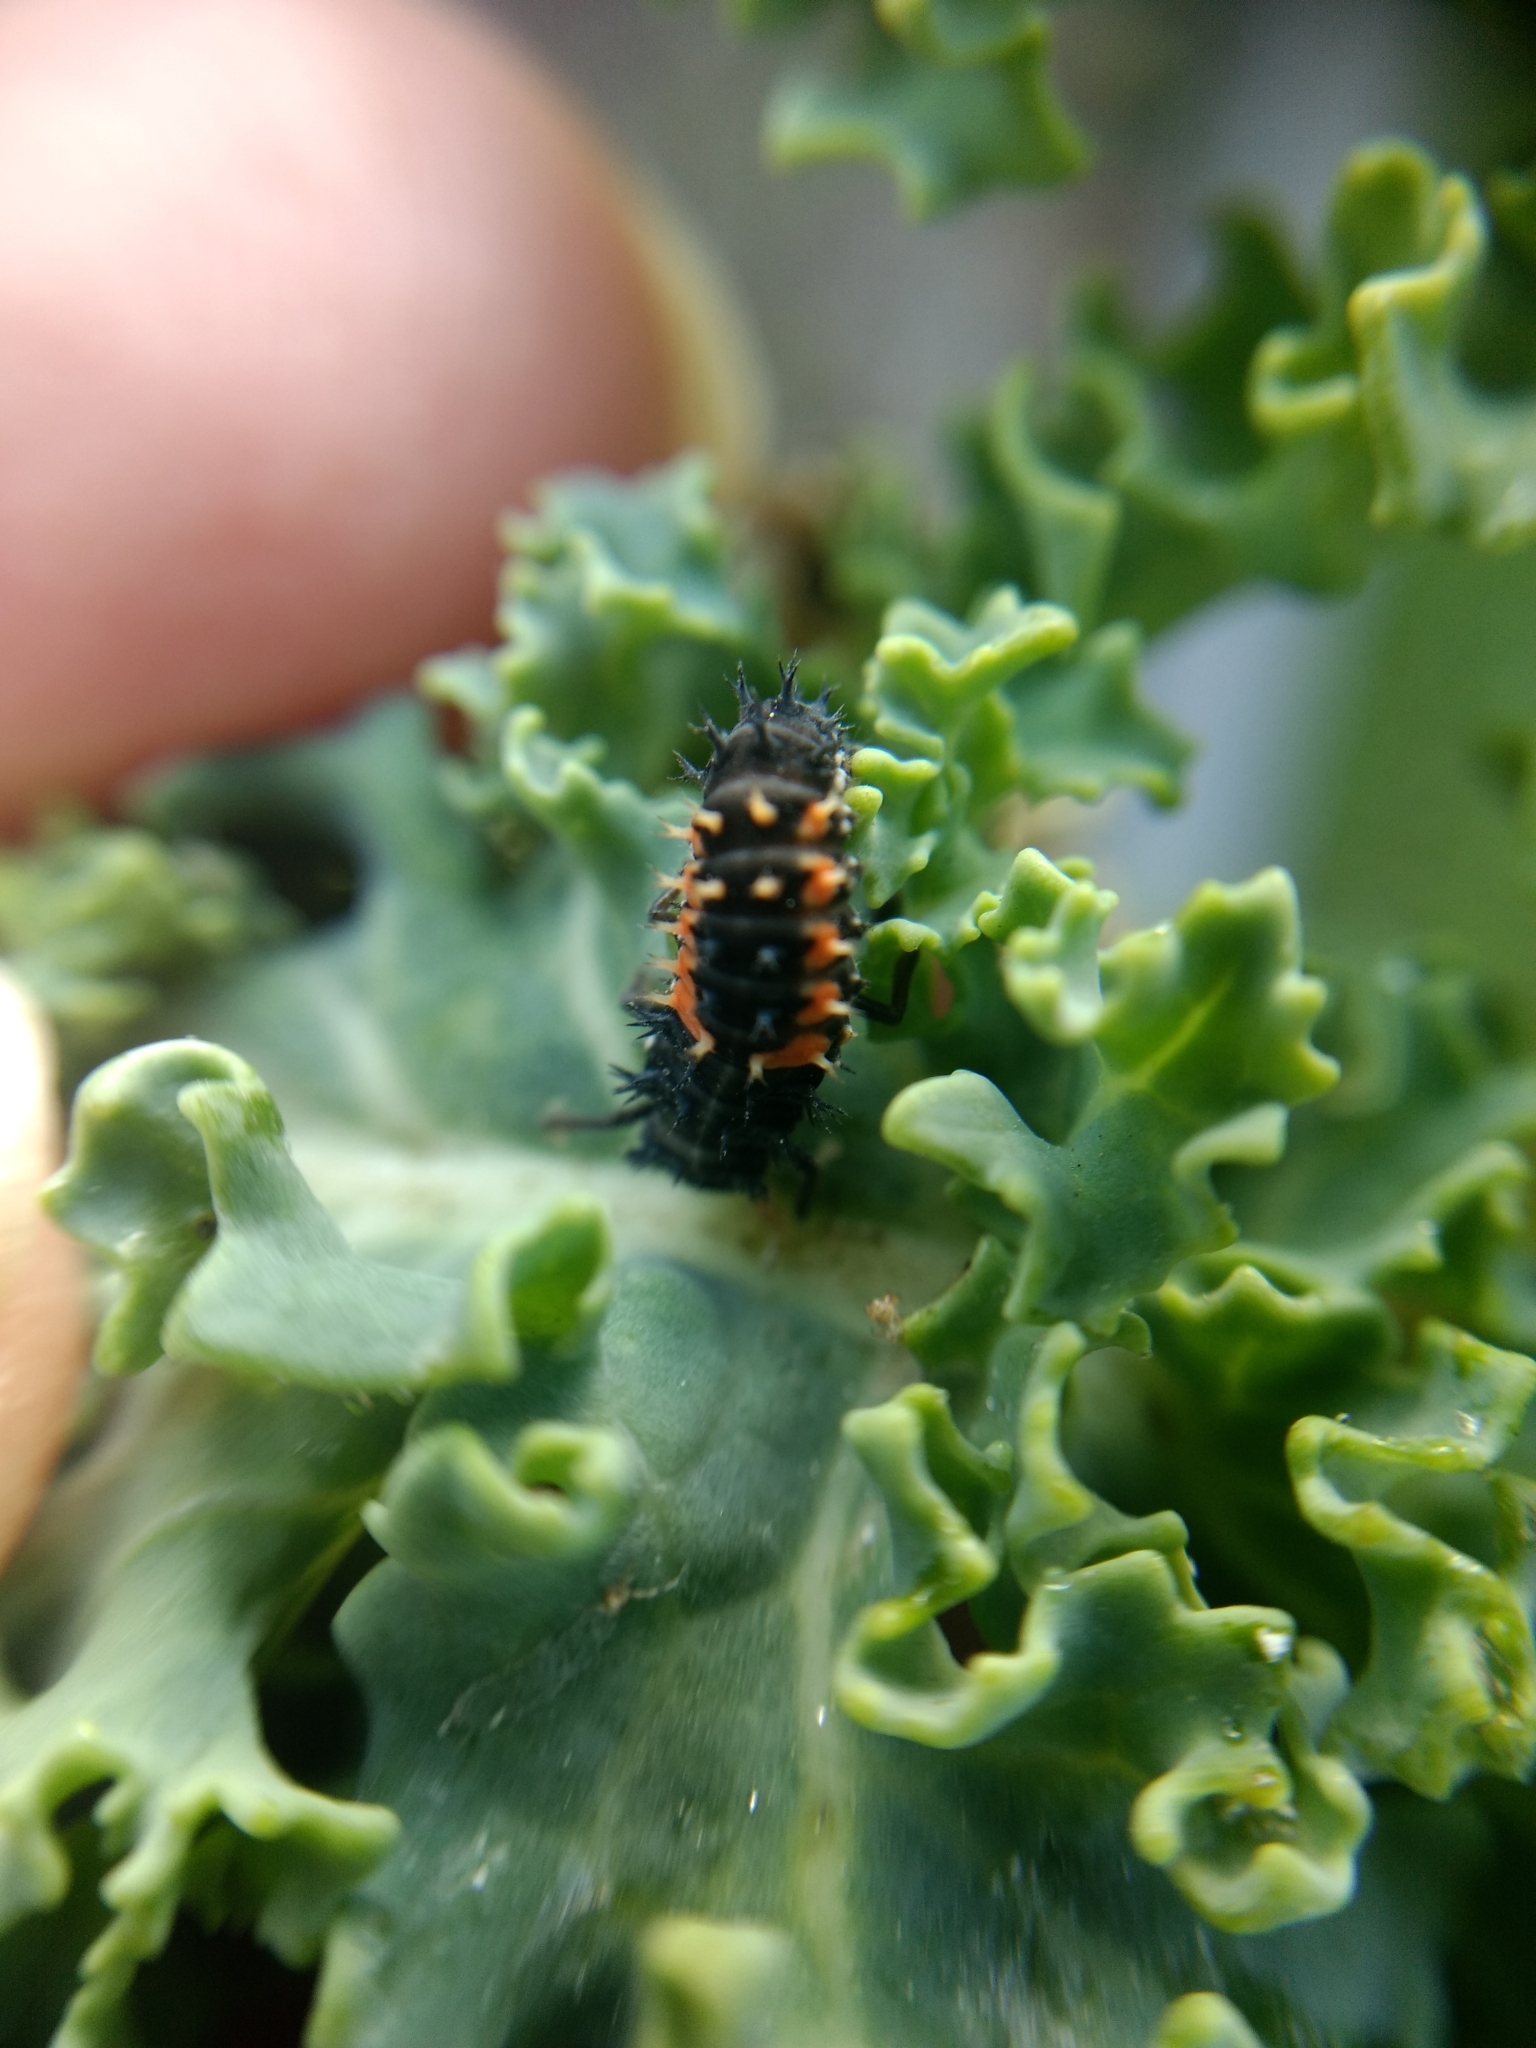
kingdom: Animalia
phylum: Arthropoda
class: Insecta
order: Coleoptera
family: Coccinellidae
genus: Harmonia
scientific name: Harmonia axyridis
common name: Harlequin ladybird
